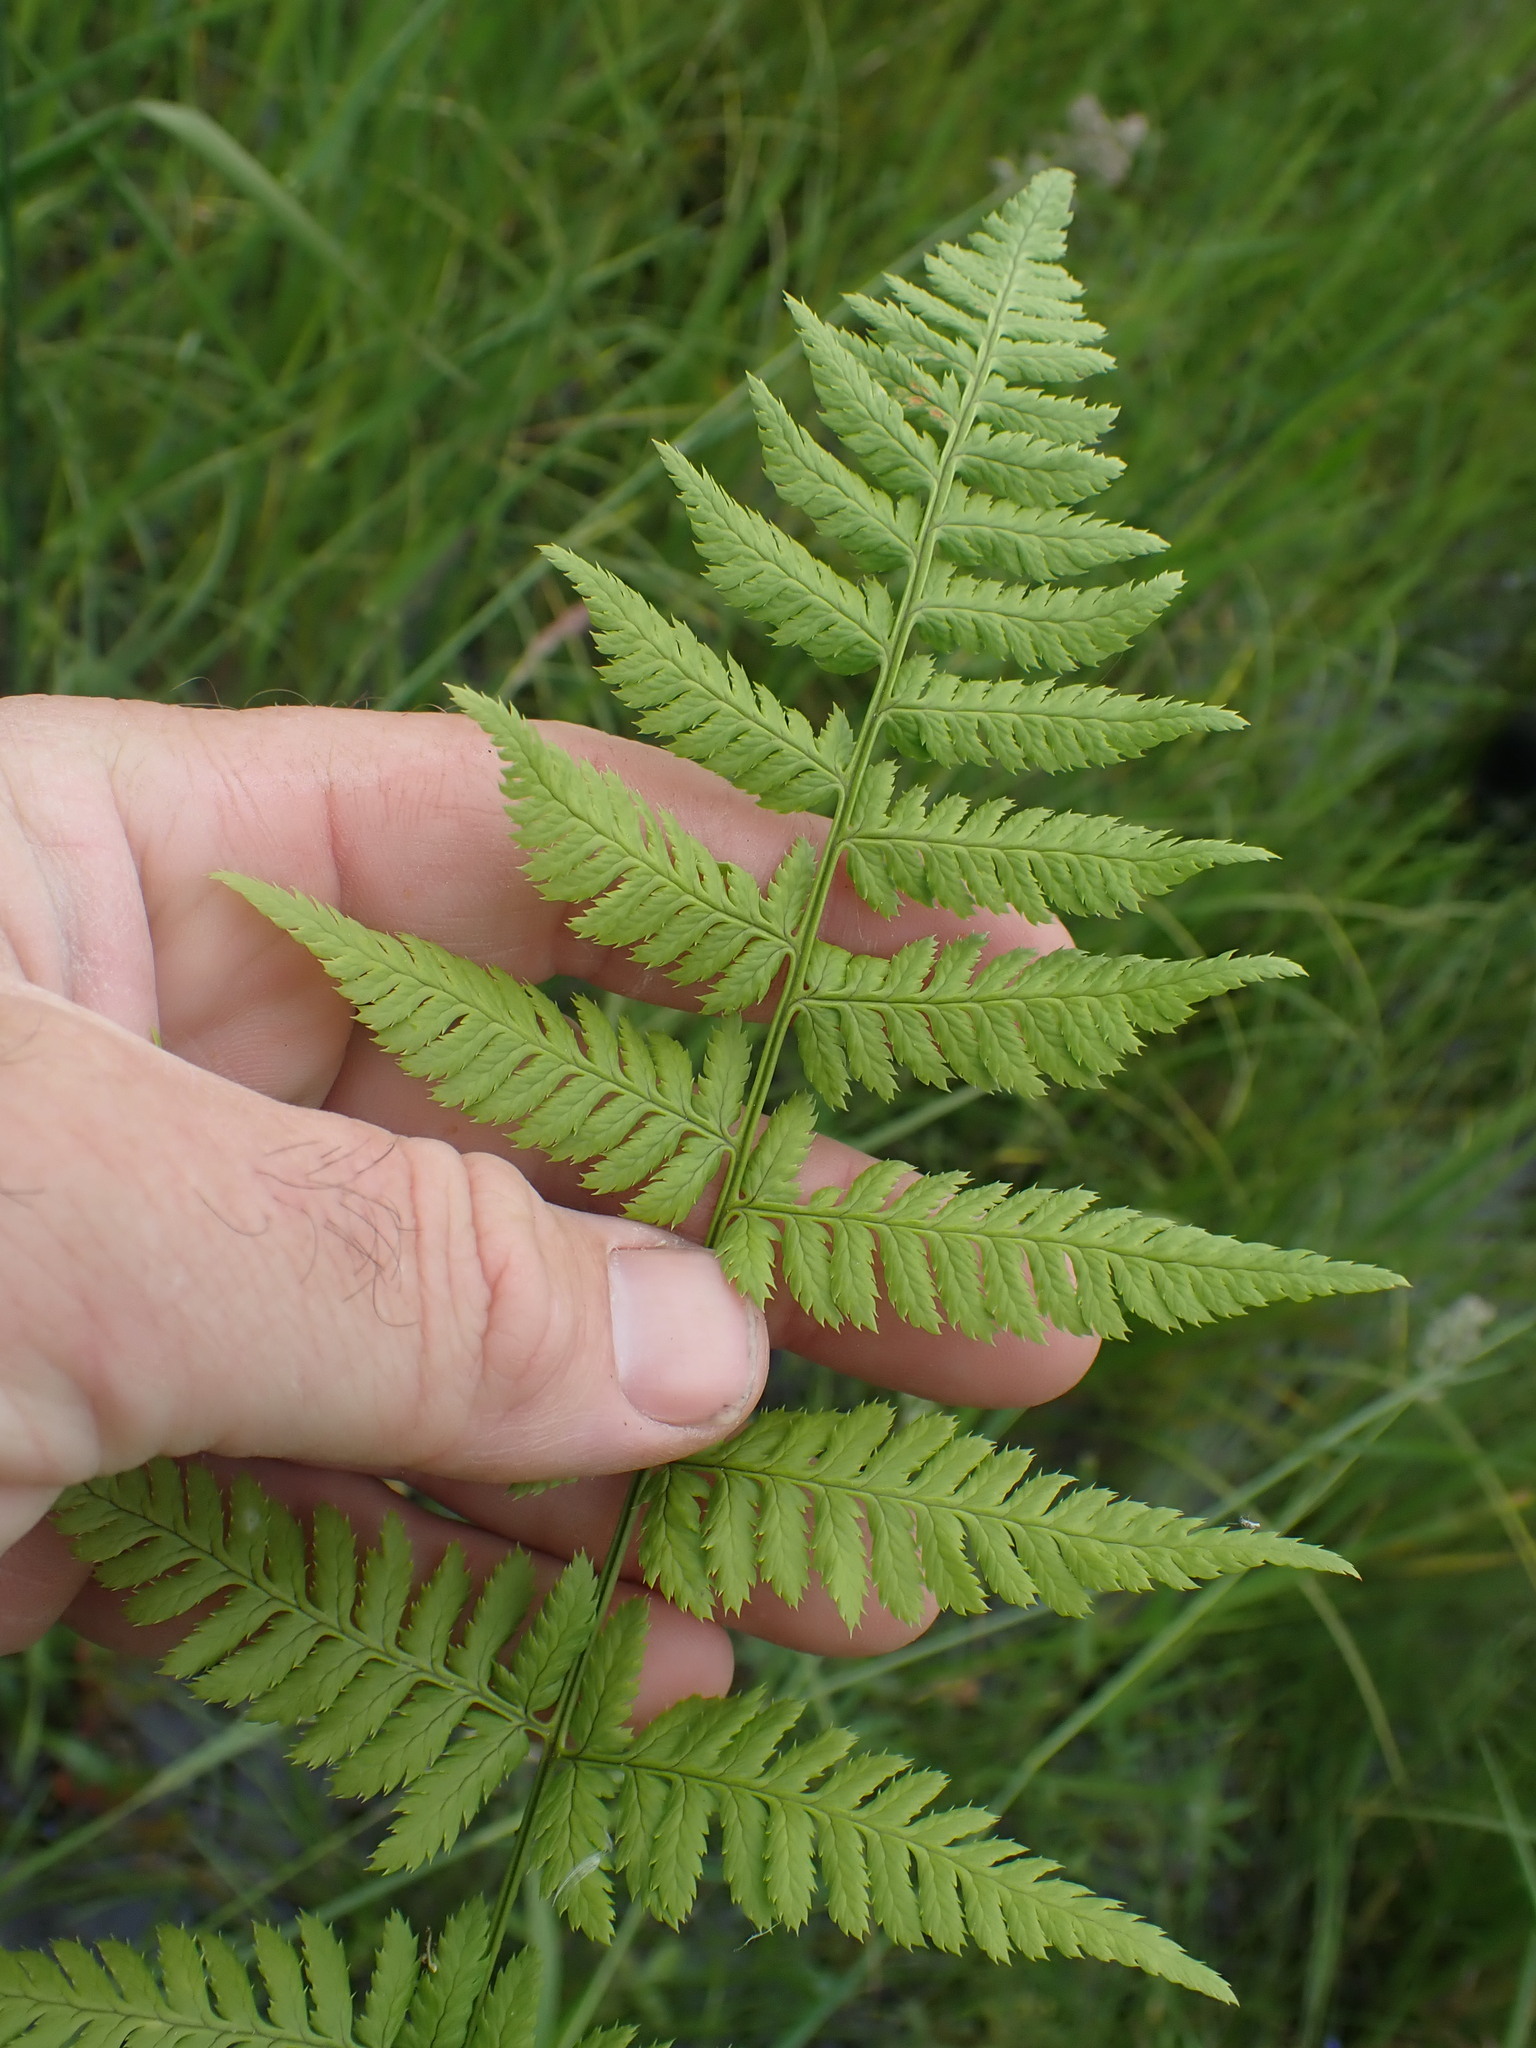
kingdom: Plantae
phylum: Tracheophyta
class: Polypodiopsida
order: Polypodiales
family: Dryopteridaceae
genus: Dryopteris
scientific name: Dryopteris carthusiana
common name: Narrow buckler-fern
